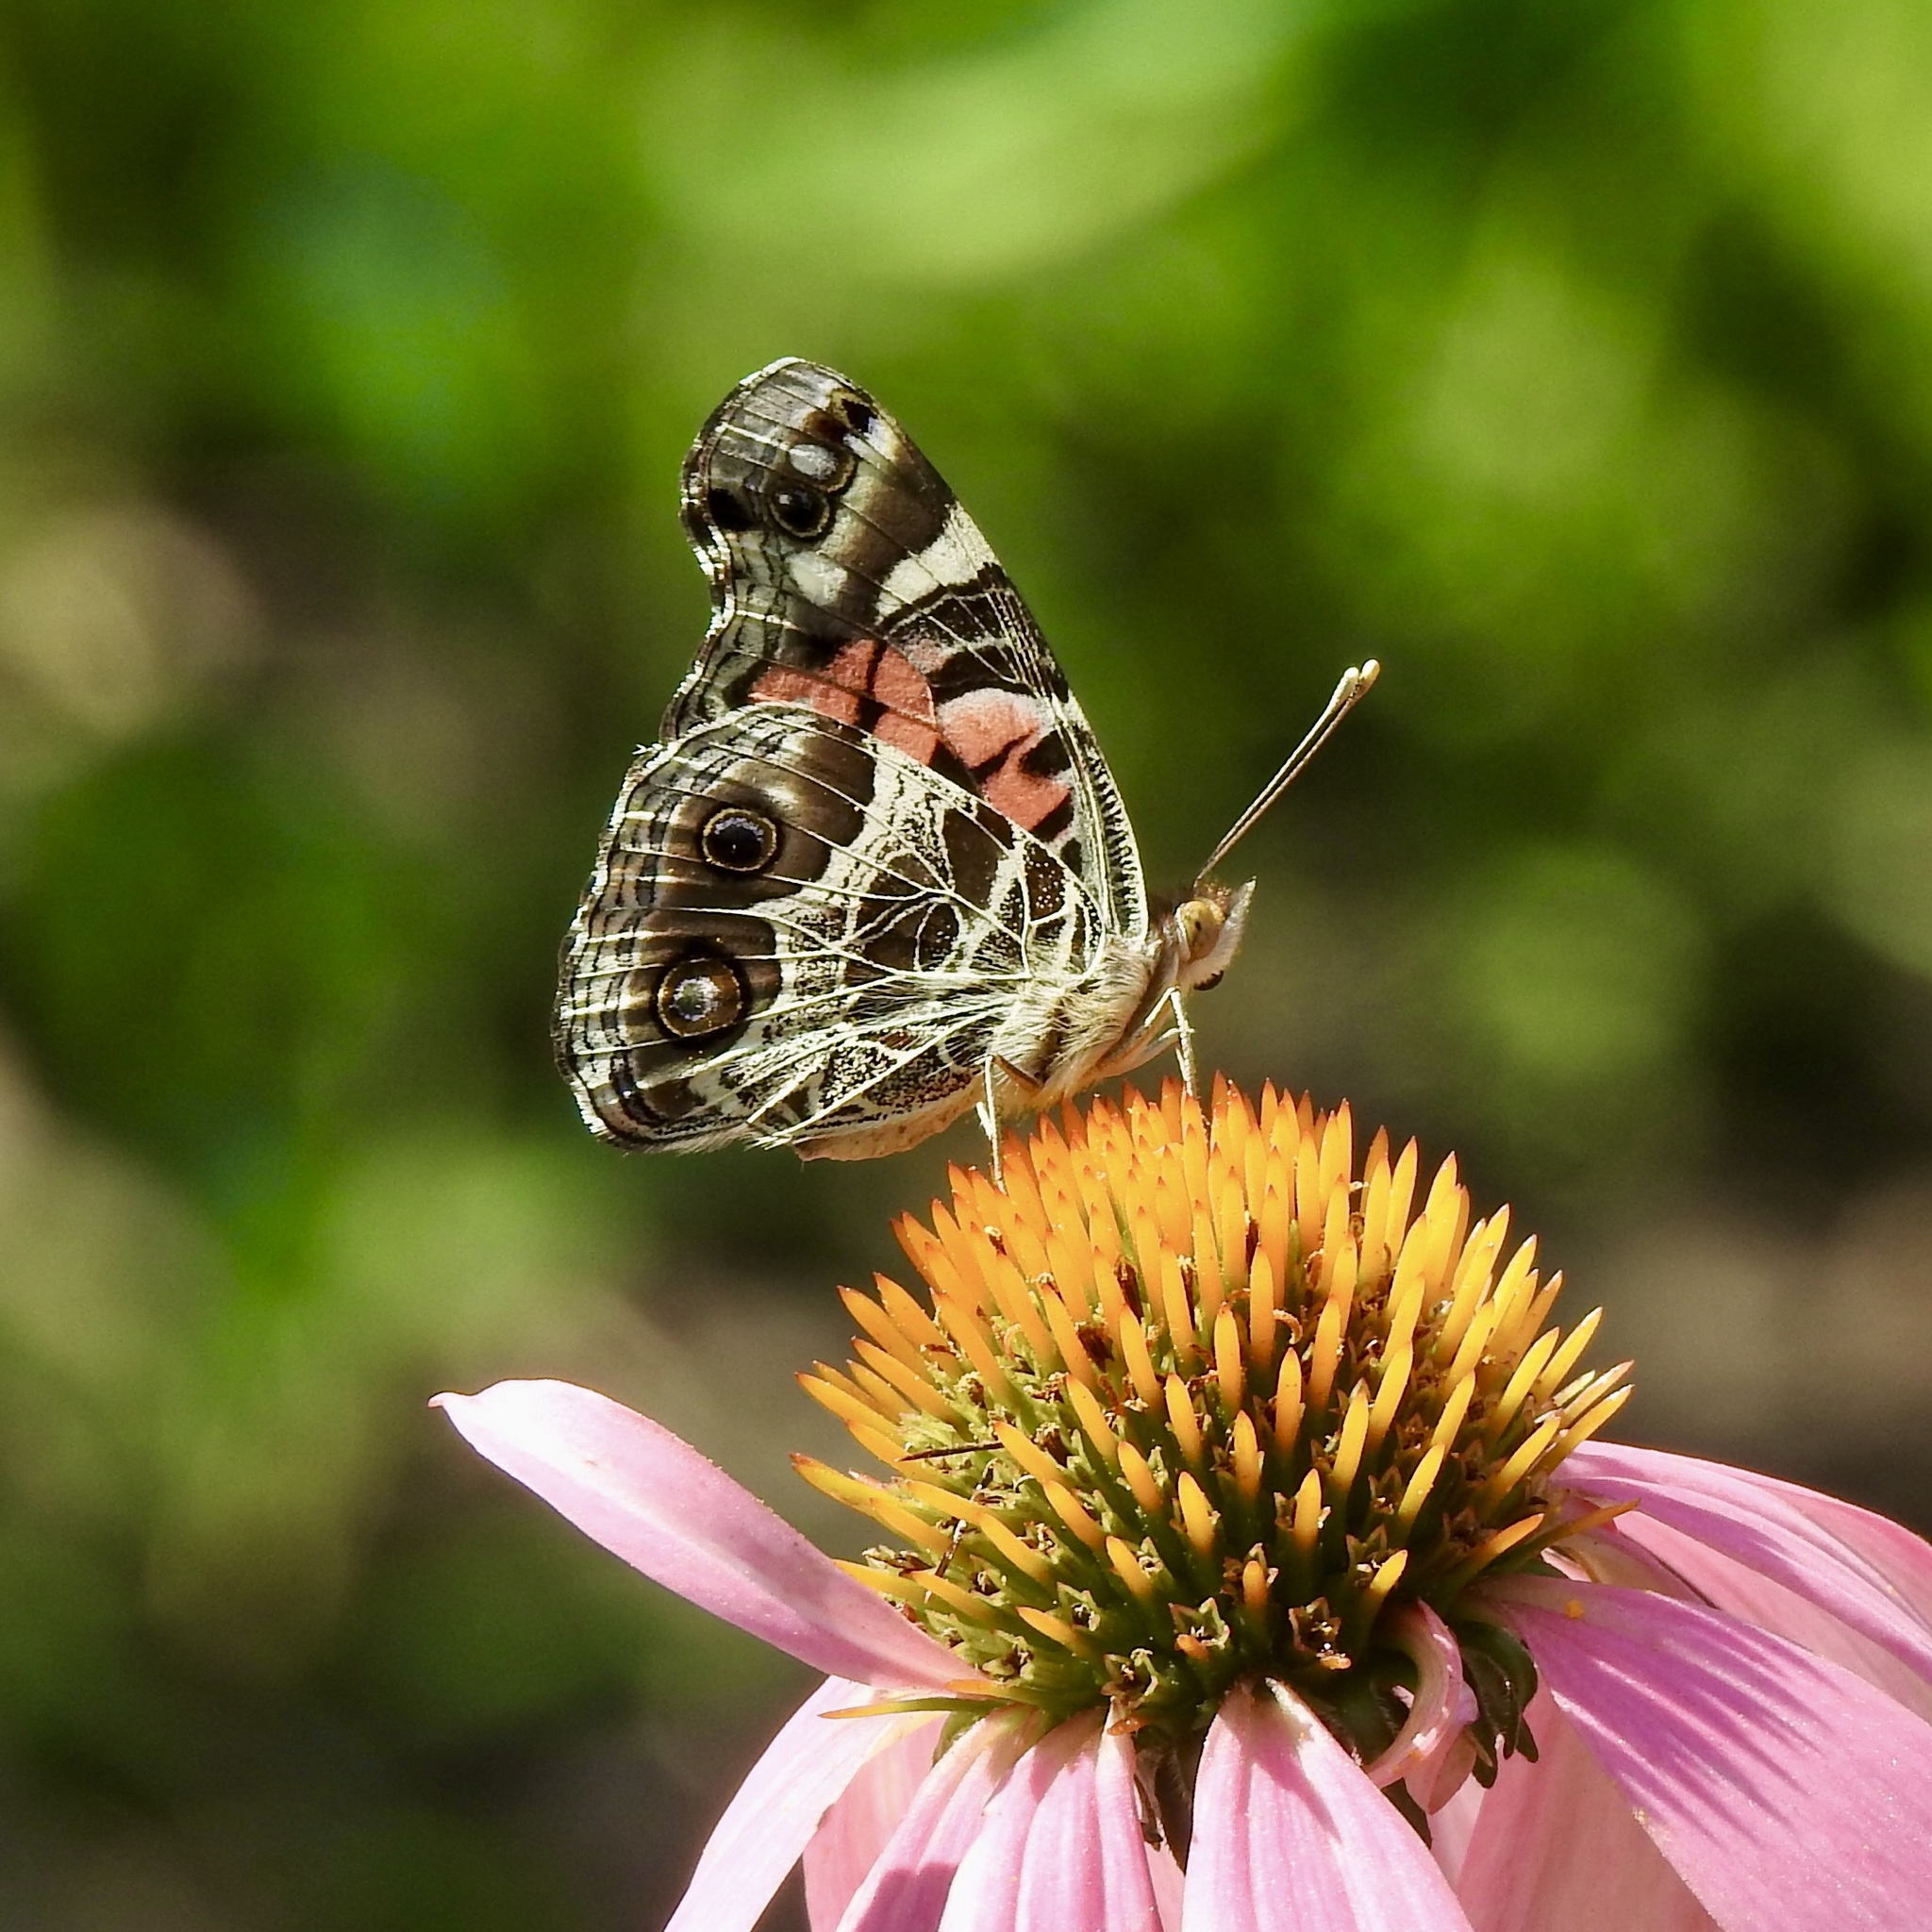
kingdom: Animalia
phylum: Arthropoda
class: Insecta
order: Lepidoptera
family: Nymphalidae
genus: Vanessa
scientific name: Vanessa virginiensis
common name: American lady
